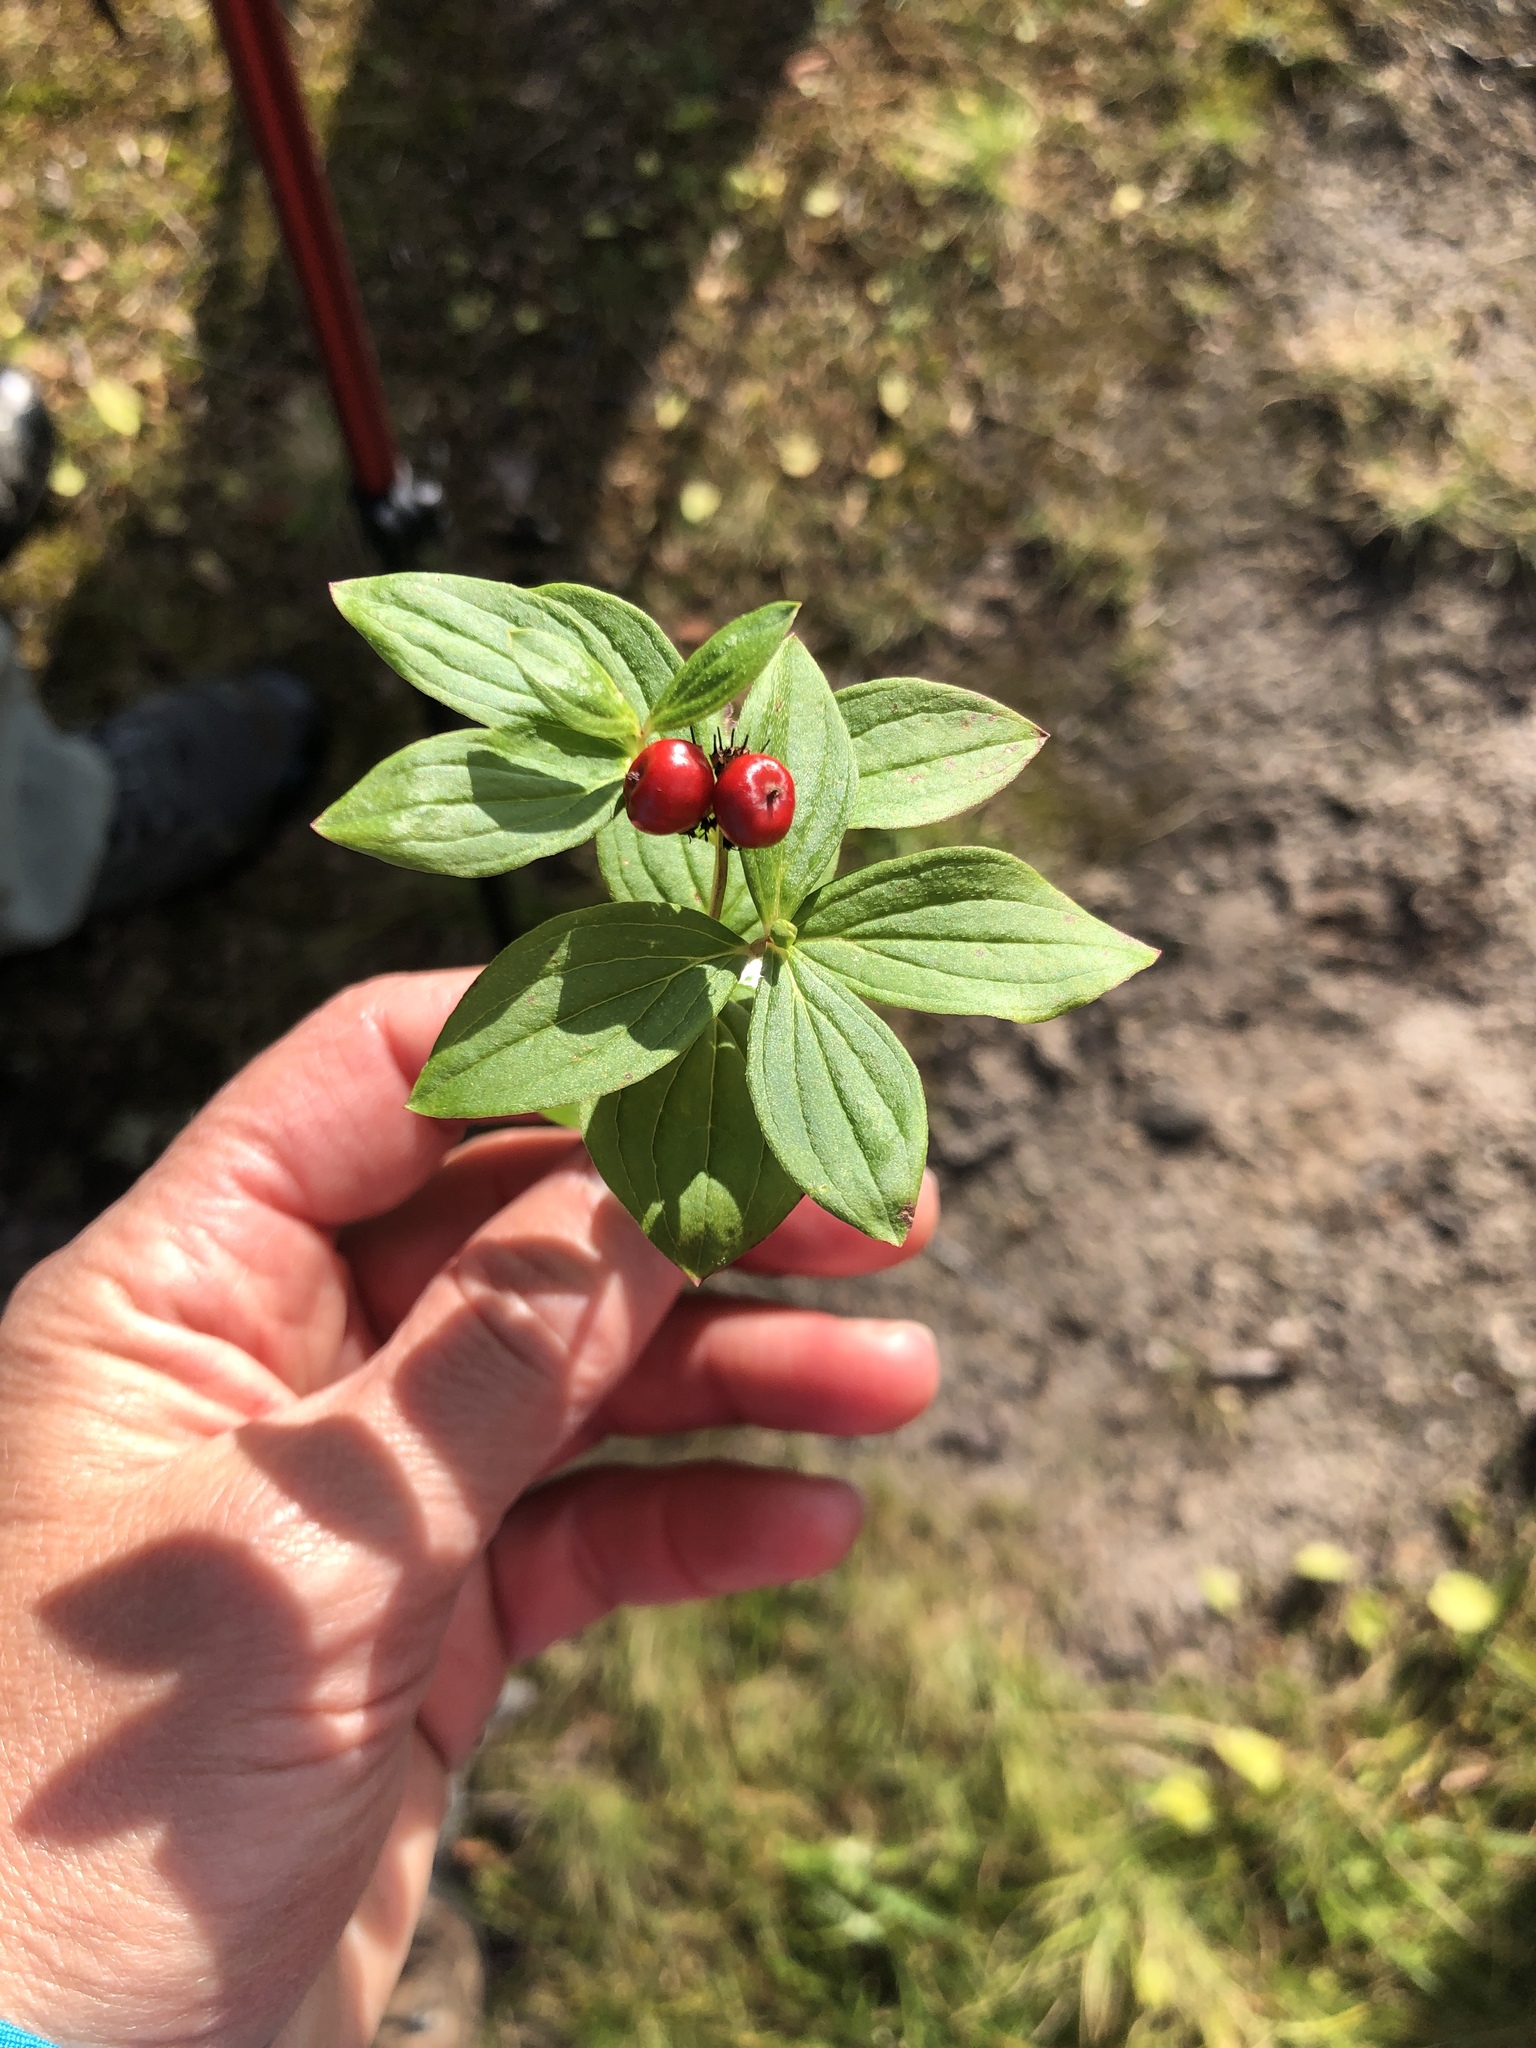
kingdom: Plantae
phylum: Tracheophyta
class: Magnoliopsida
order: Cornales
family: Cornaceae
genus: Cornus
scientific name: Cornus suecica
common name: Dwarf cornel
